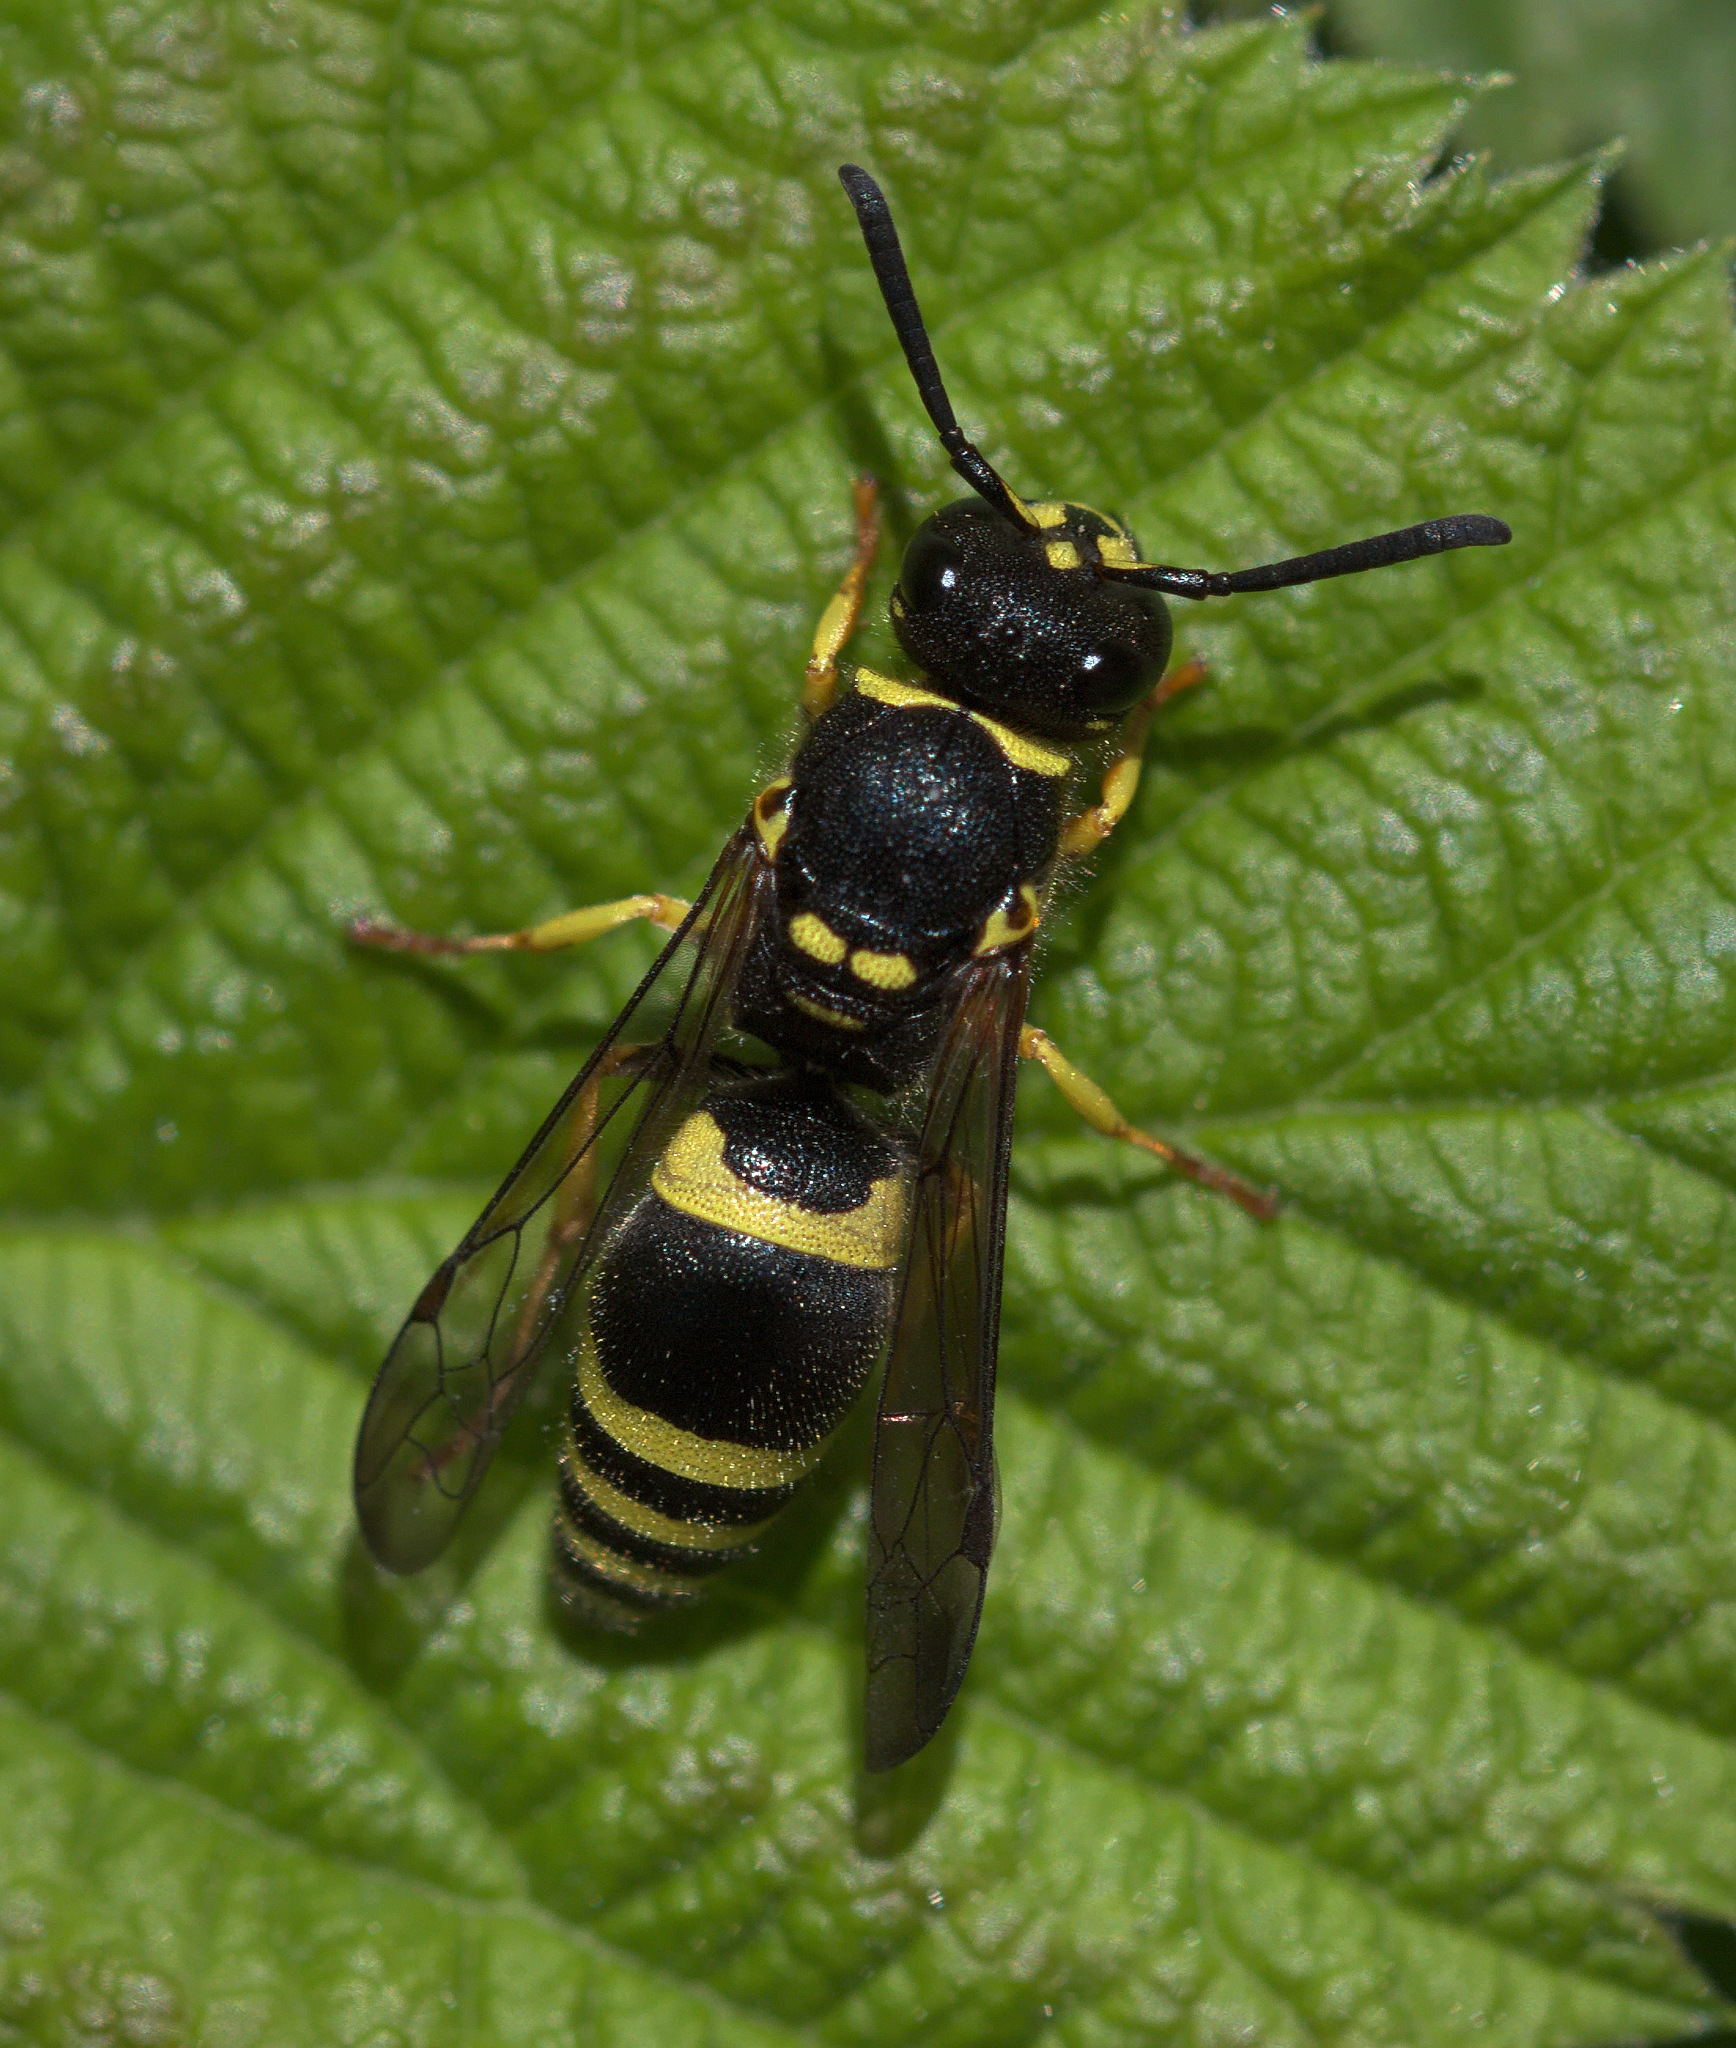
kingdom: Animalia
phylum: Arthropoda
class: Insecta
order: Hymenoptera
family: Vespidae
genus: Ancistrocerus
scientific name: Ancistrocerus gazella
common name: European tube wasp
